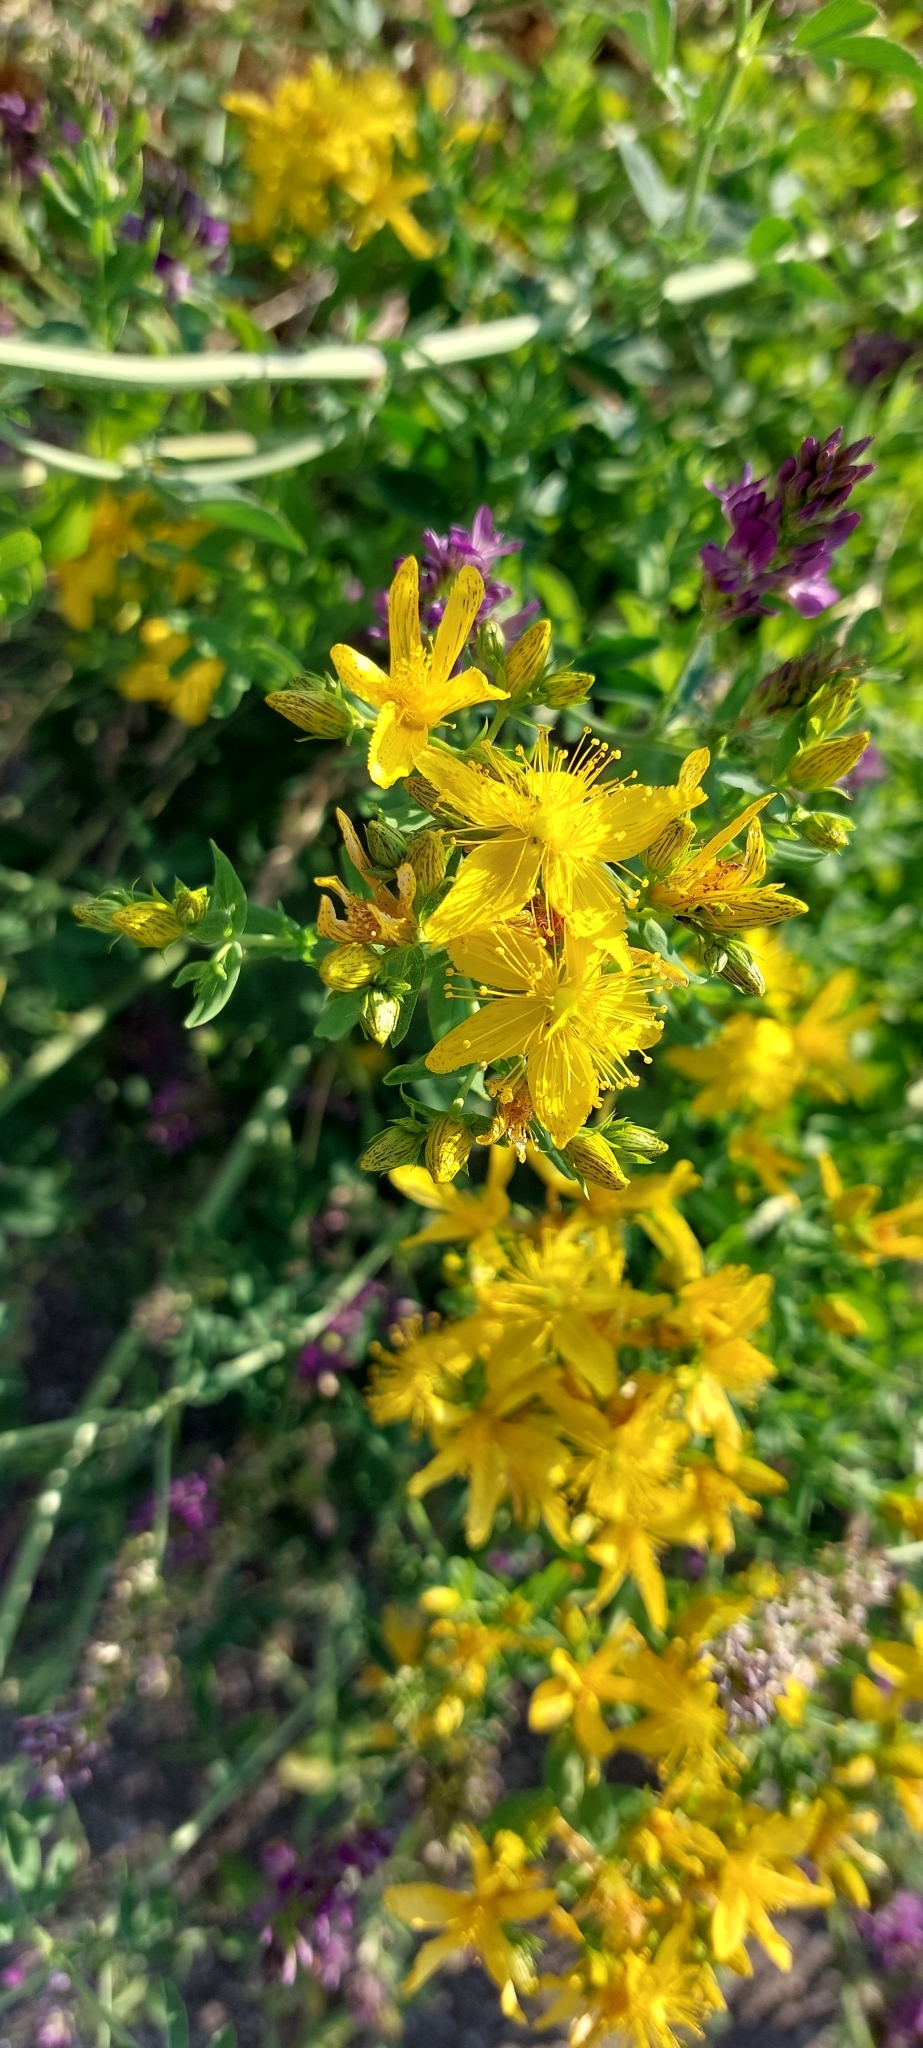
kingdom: Plantae
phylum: Tracheophyta
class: Magnoliopsida
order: Malpighiales
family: Hypericaceae
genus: Hypericum
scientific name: Hypericum perforatum
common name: Common st. johnswort
